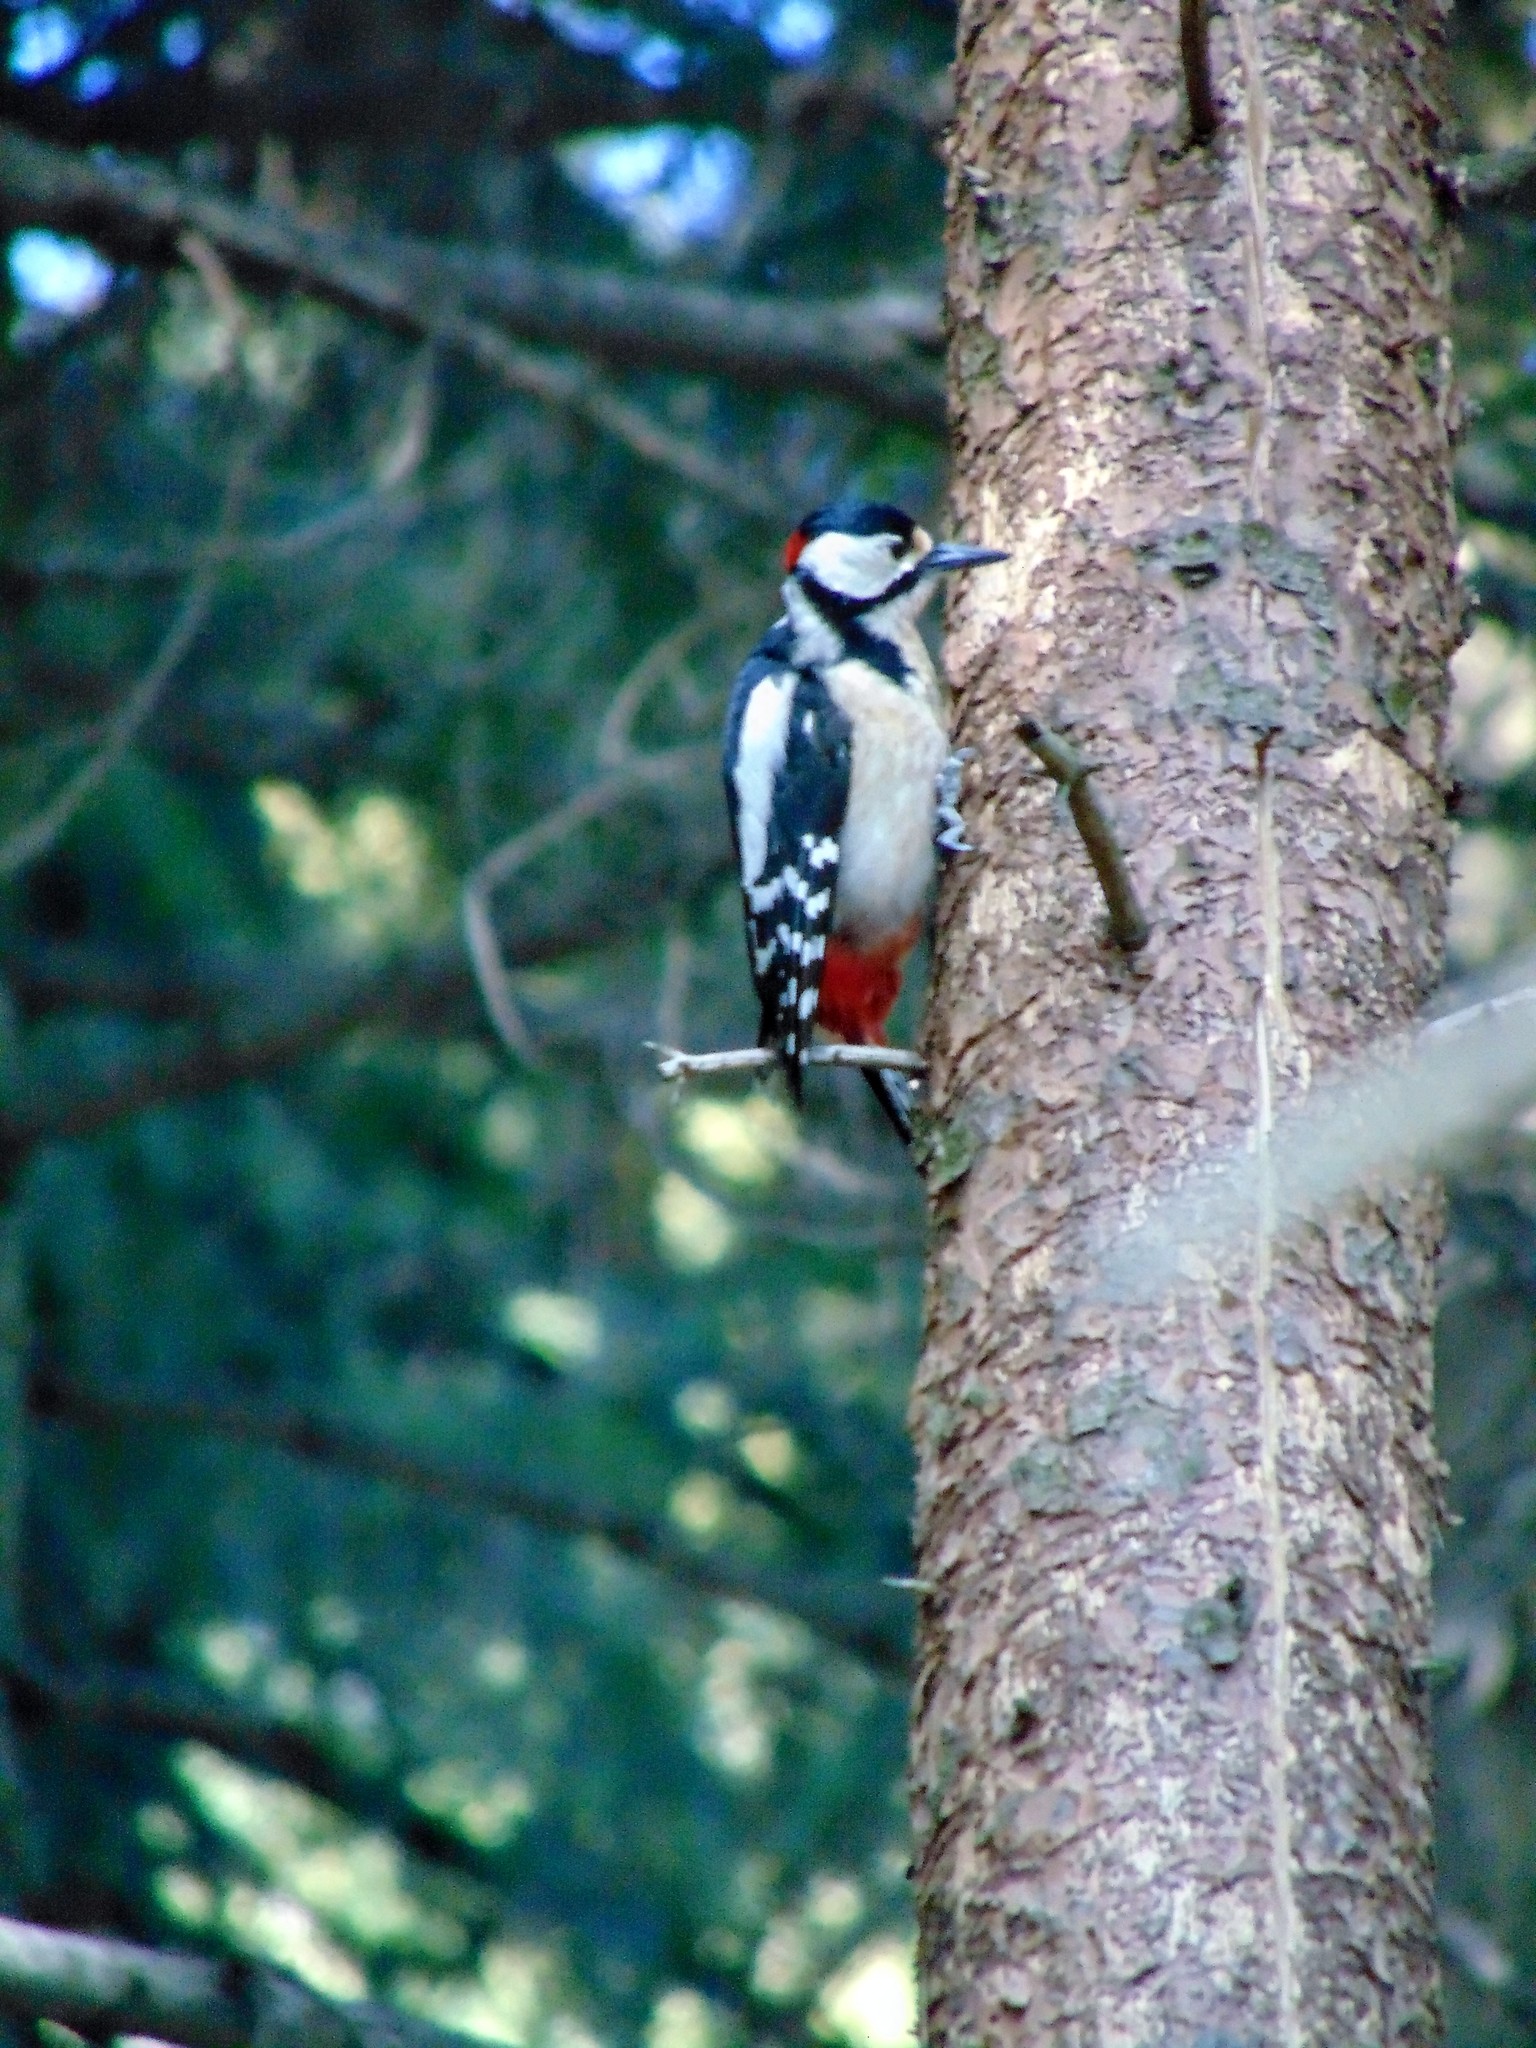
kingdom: Animalia
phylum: Chordata
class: Aves
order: Piciformes
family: Picidae
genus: Dendrocopos
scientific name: Dendrocopos major
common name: Great spotted woodpecker
